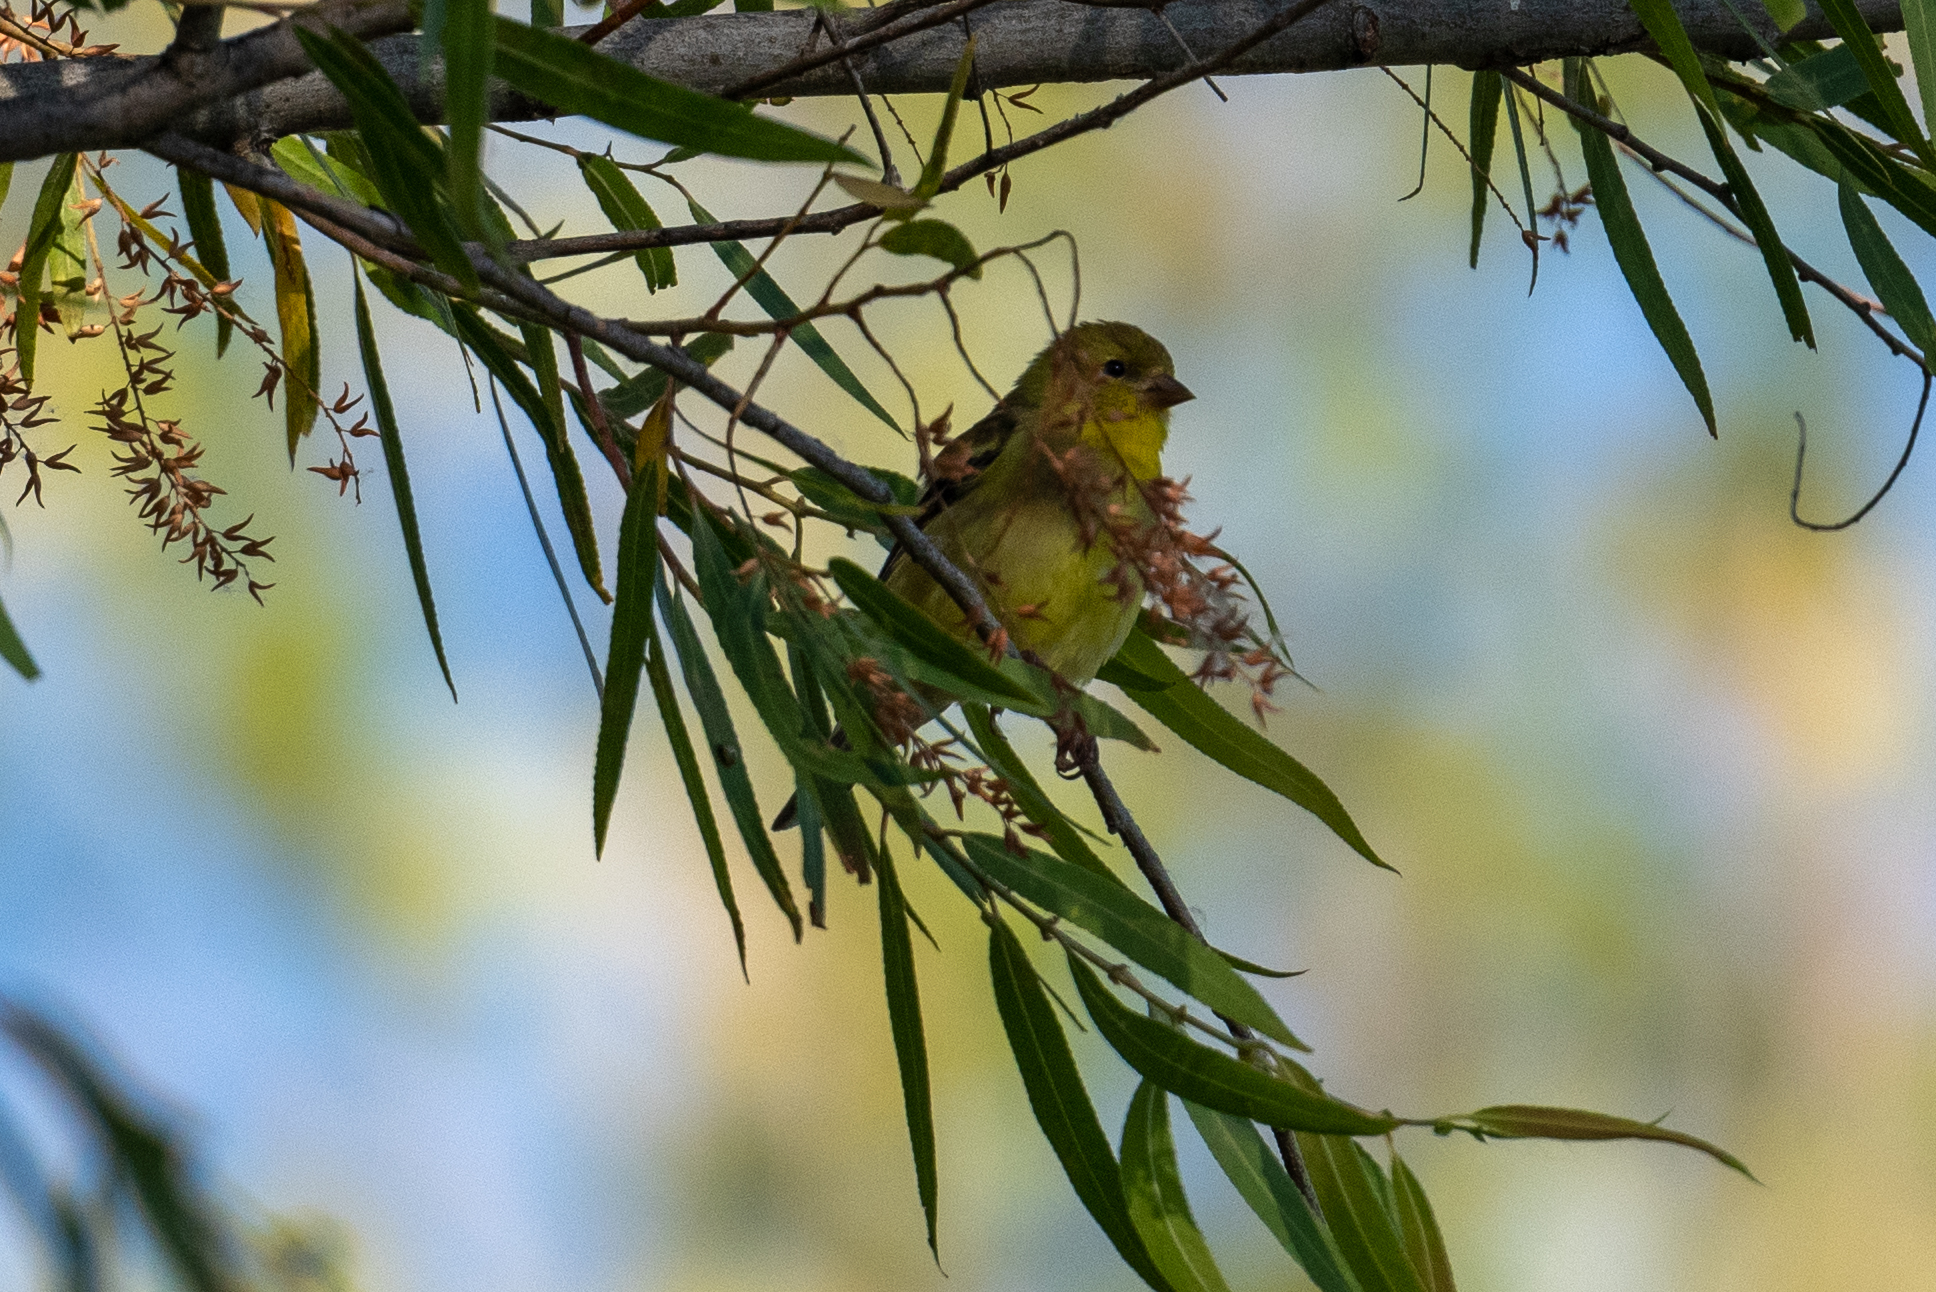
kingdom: Animalia
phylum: Chordata
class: Aves
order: Passeriformes
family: Fringillidae
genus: Spinus
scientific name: Spinus tristis
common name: American goldfinch
